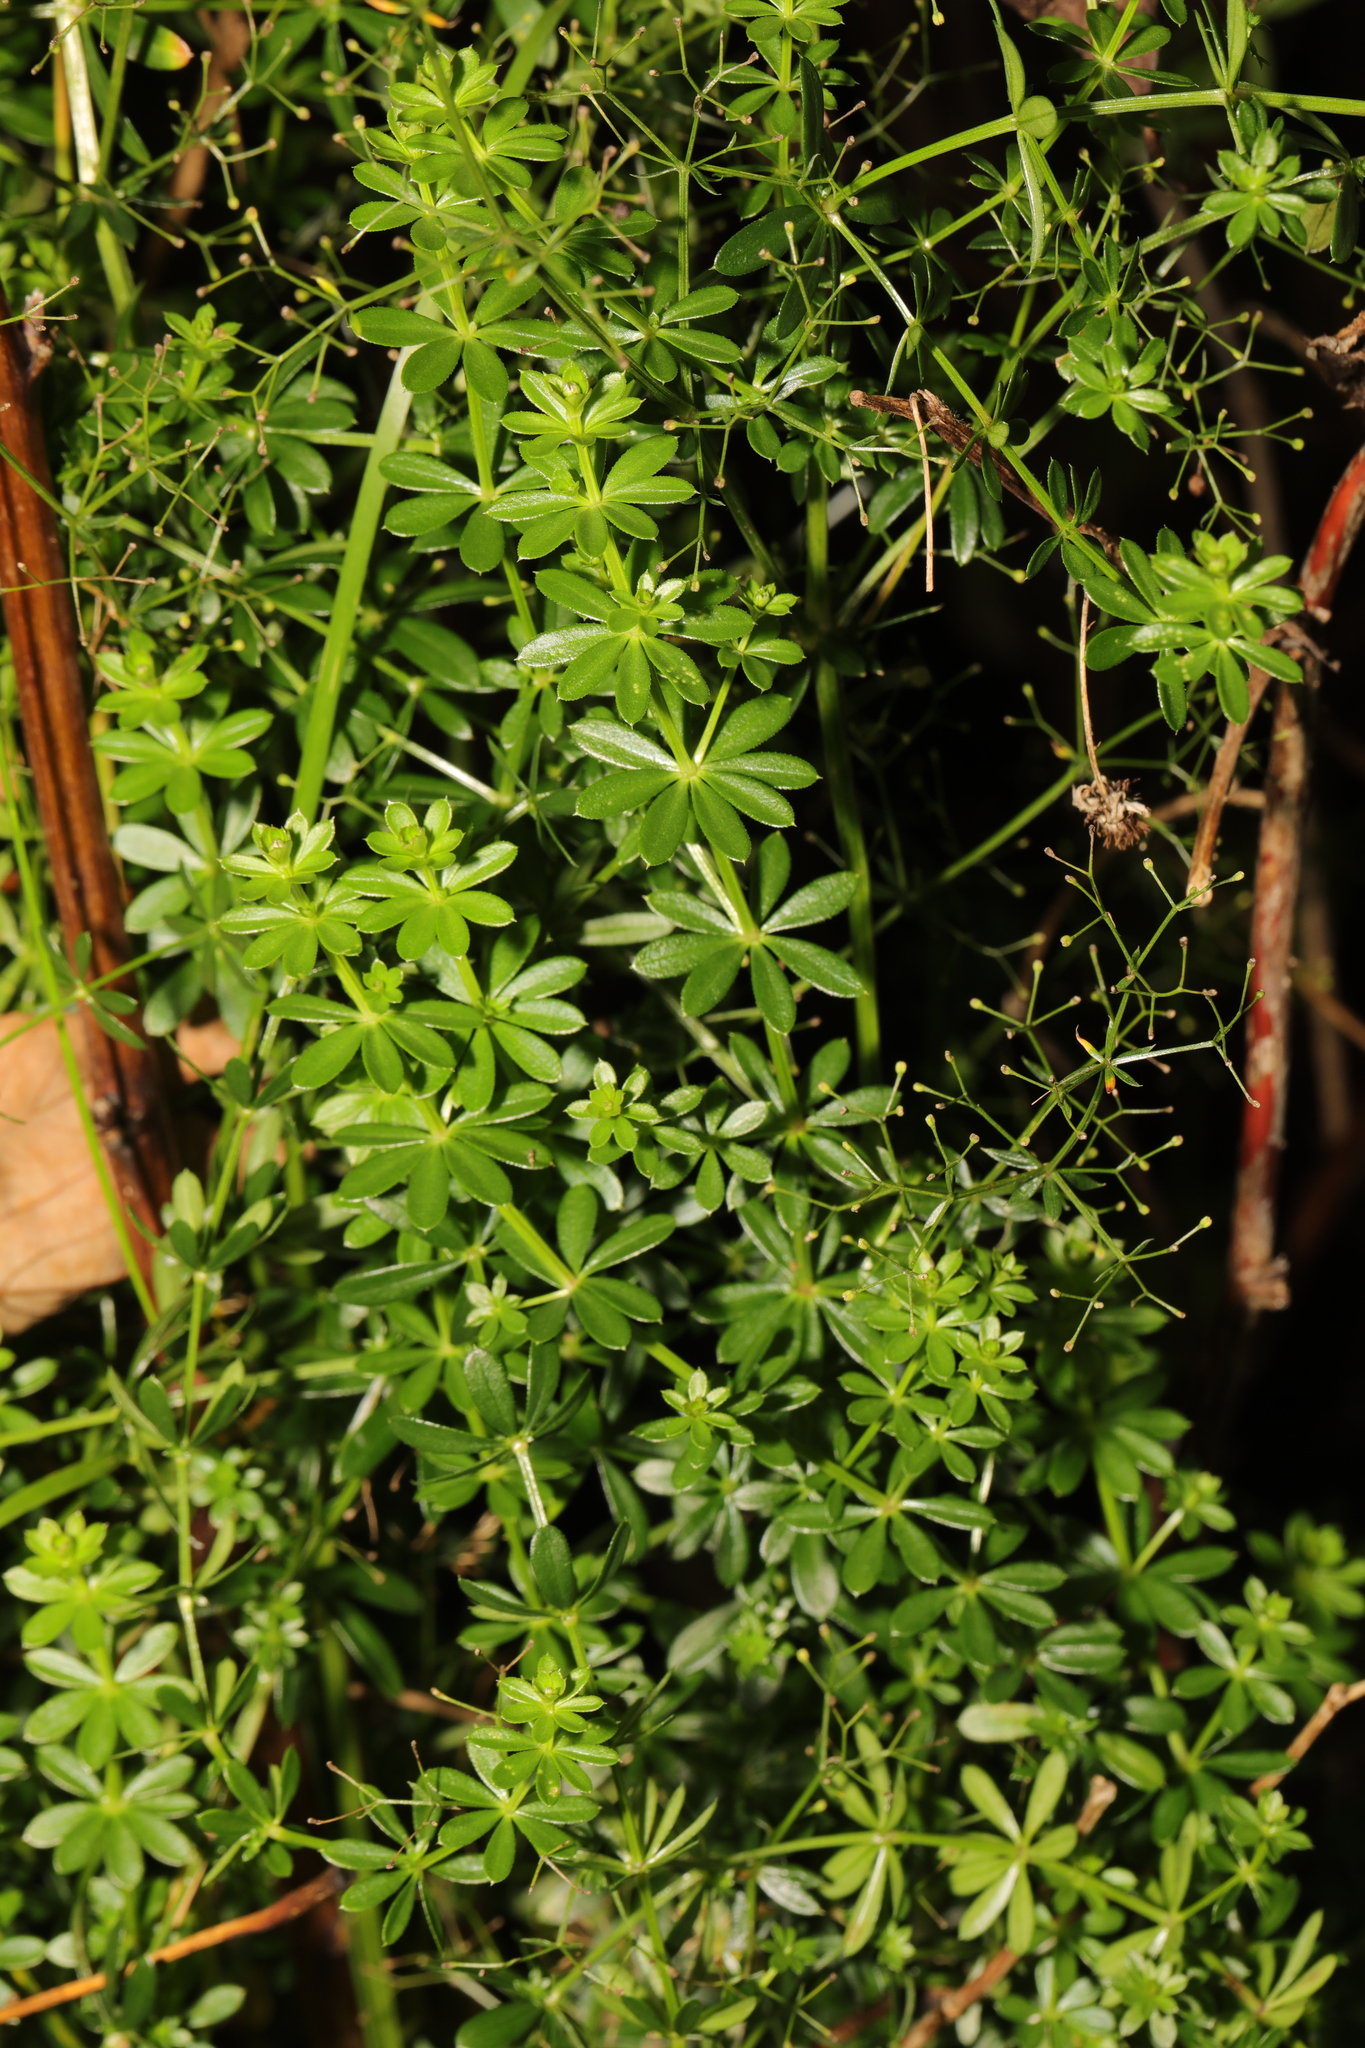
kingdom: Plantae
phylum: Tracheophyta
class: Magnoliopsida
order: Gentianales
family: Rubiaceae
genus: Galium
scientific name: Galium mollugo
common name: Hedge bedstraw
